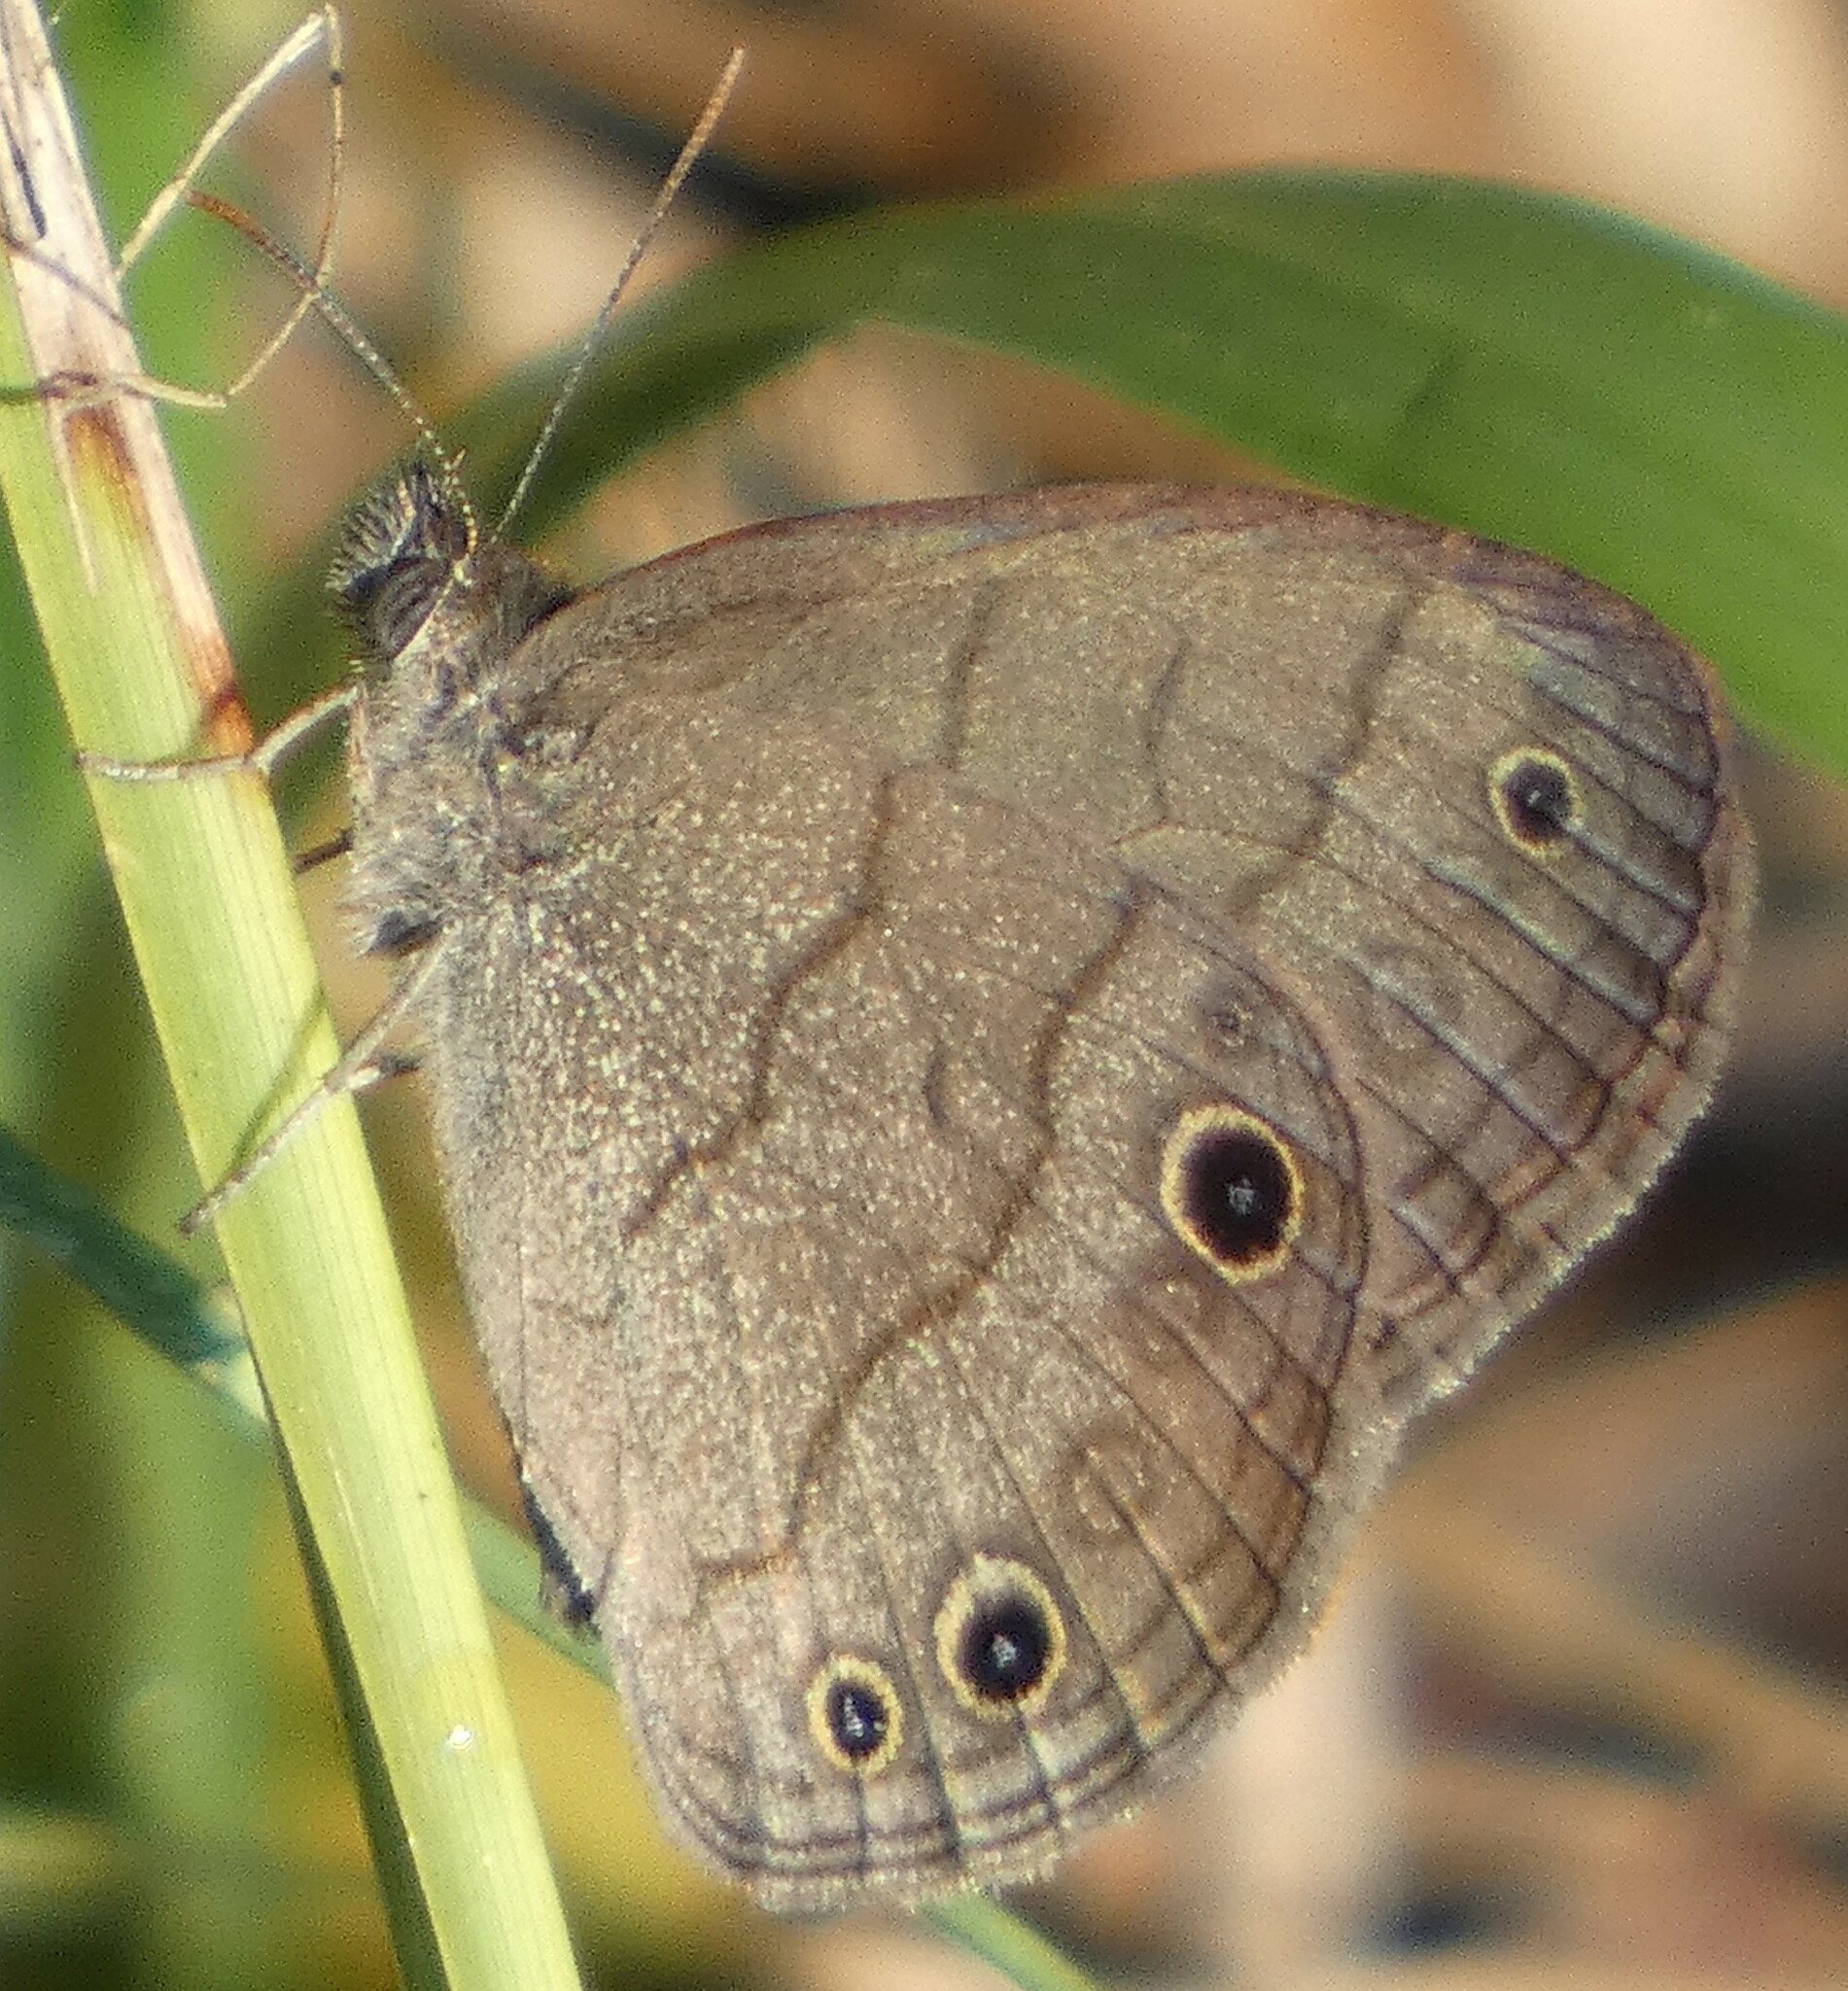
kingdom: Animalia
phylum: Arthropoda
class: Insecta
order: Lepidoptera
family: Nymphalidae
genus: Hermeuptychia
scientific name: Hermeuptychia hermes
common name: Hermes satyr
